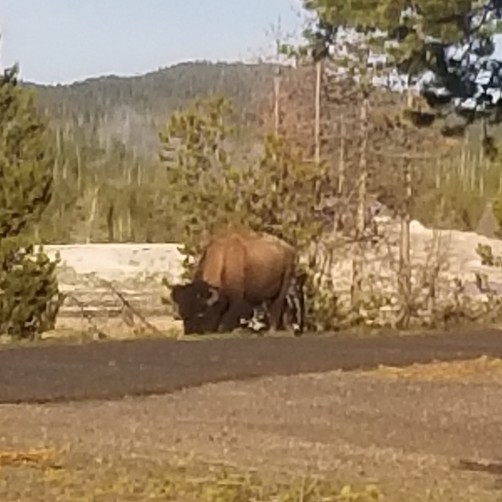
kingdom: Animalia
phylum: Chordata
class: Mammalia
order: Artiodactyla
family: Bovidae
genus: Bison
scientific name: Bison bison
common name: American bison
